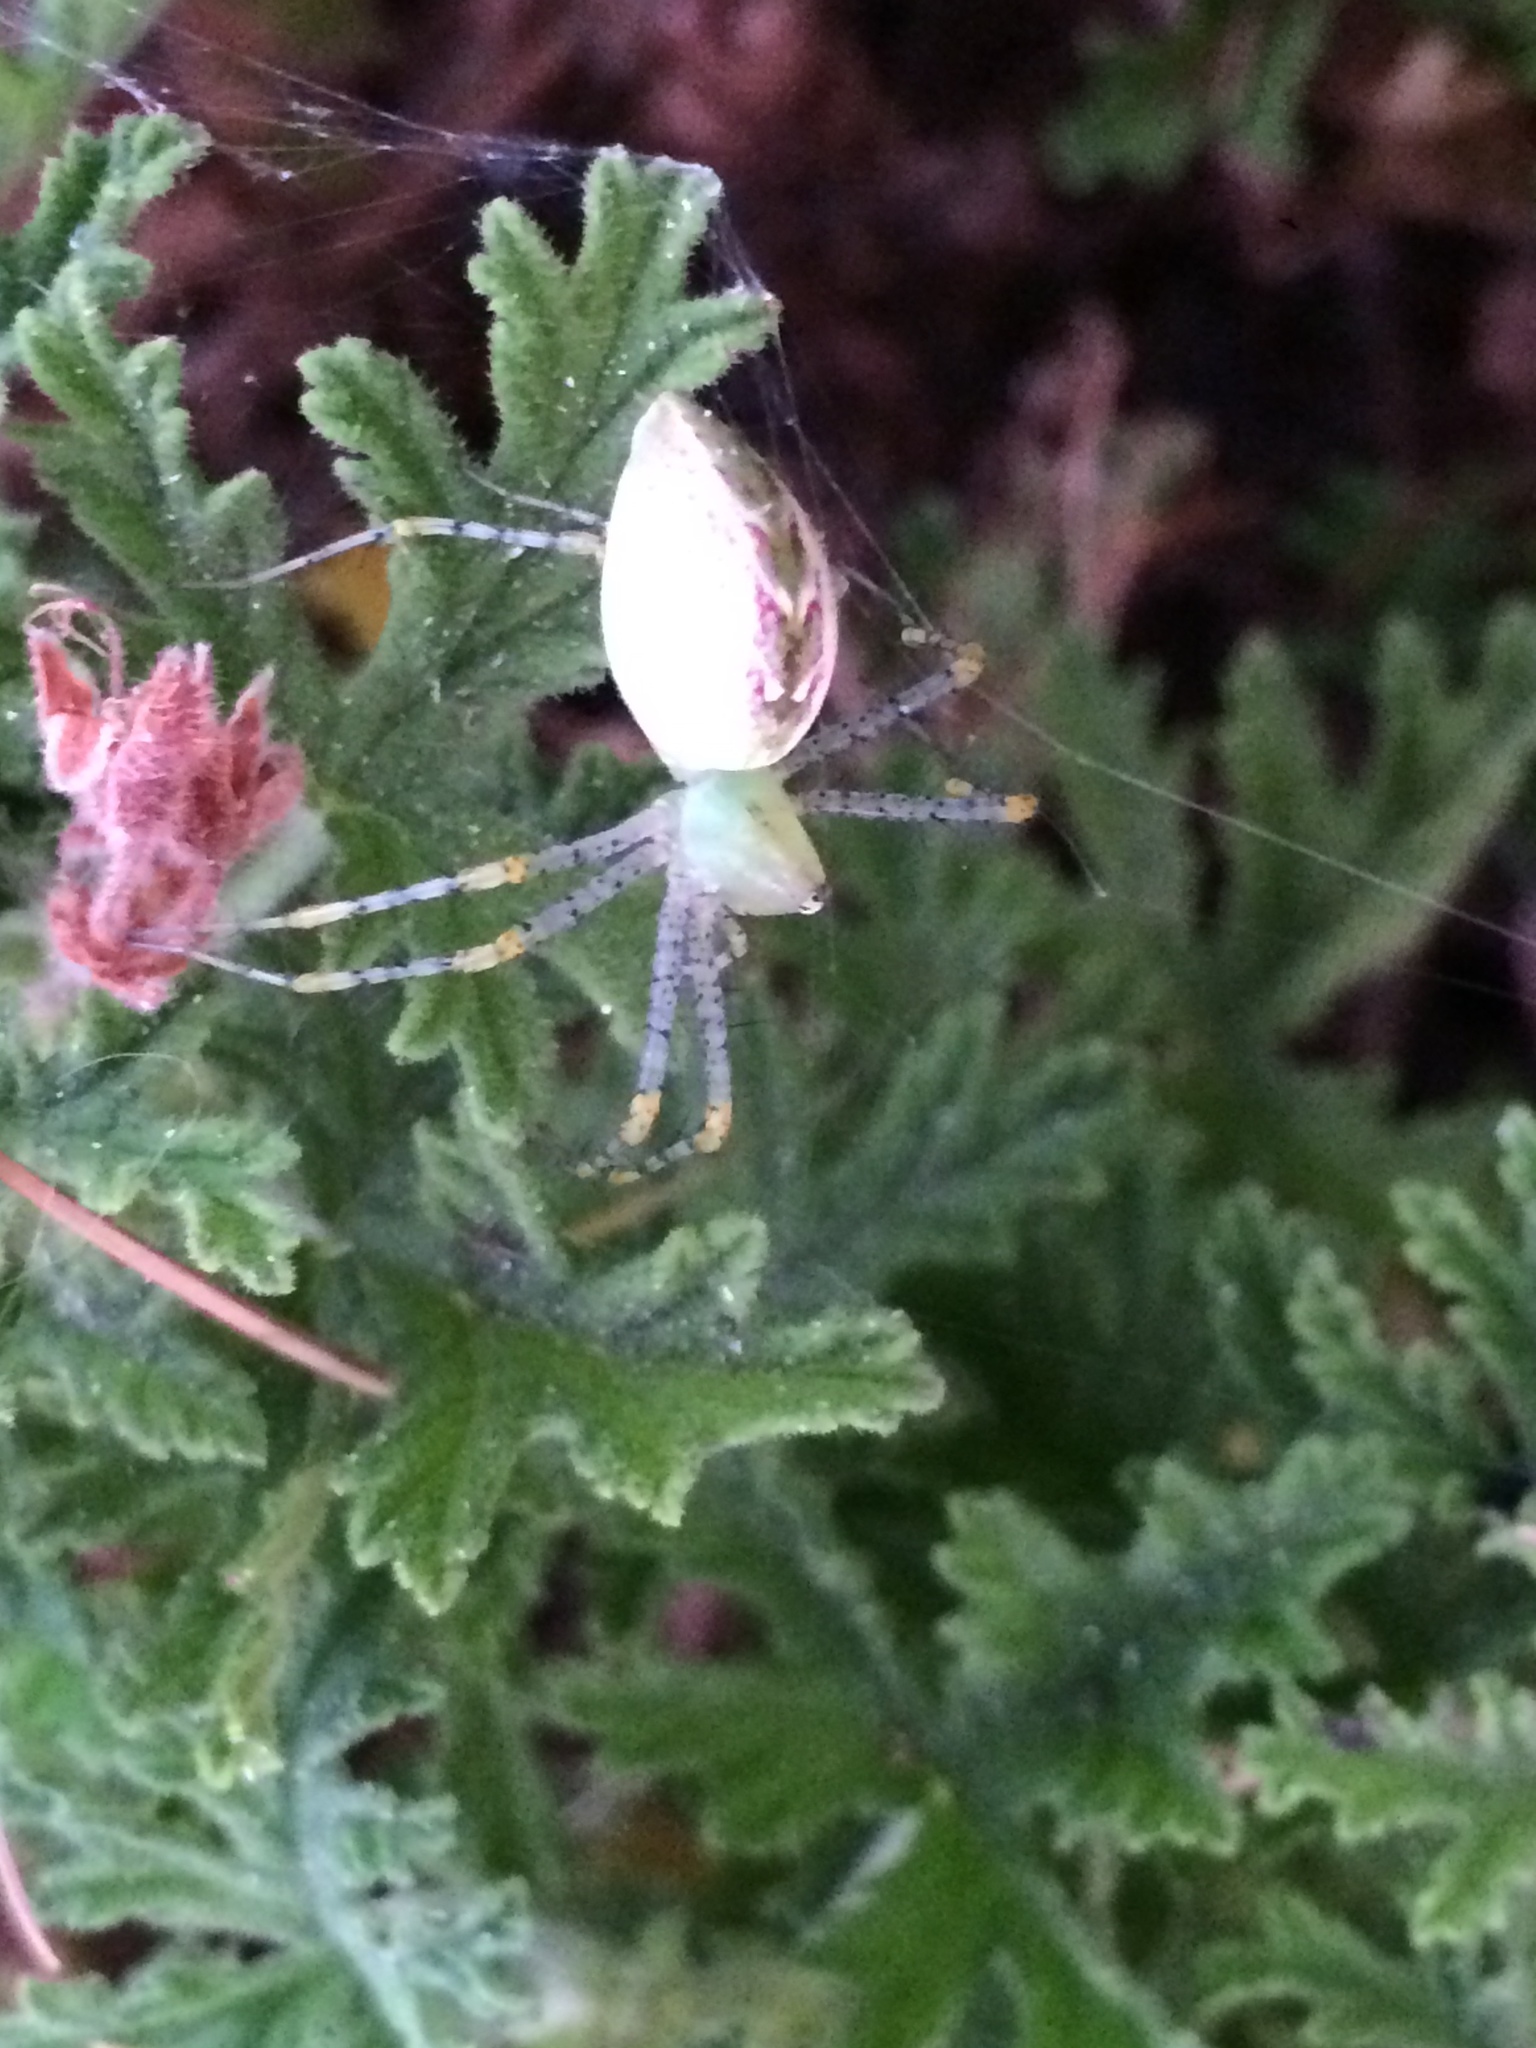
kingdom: Animalia
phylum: Arthropoda
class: Arachnida
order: Araneae
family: Oxyopidae
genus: Peucetia
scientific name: Peucetia viridans
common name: Lynx spiders
